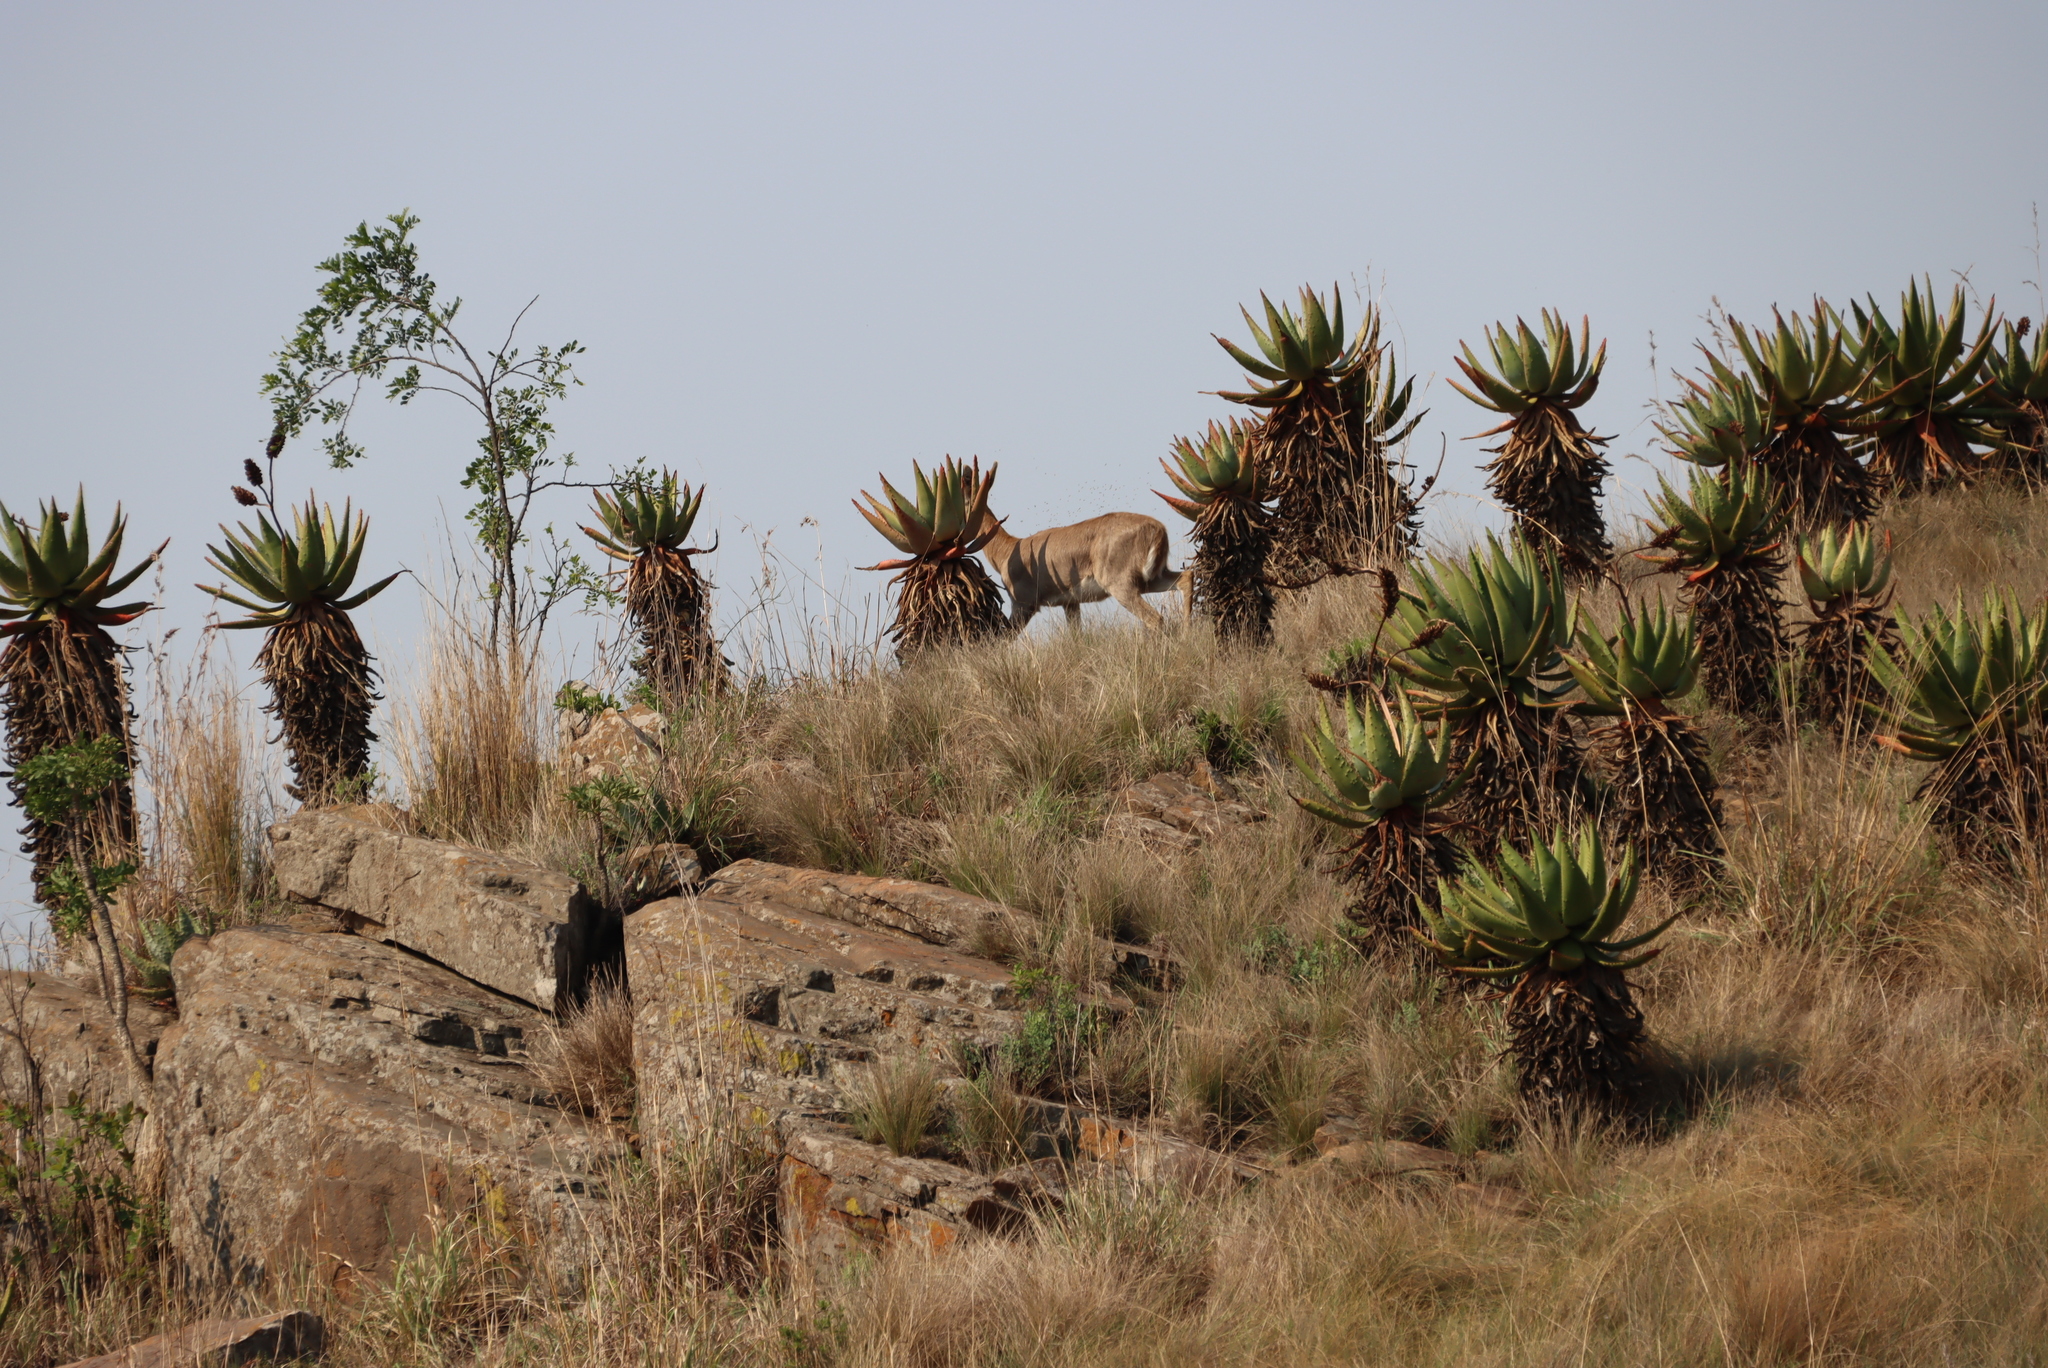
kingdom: Plantae
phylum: Tracheophyta
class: Liliopsida
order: Asparagales
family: Asphodelaceae
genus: Aloe
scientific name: Aloe marlothii
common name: Flat-flowered aloe
